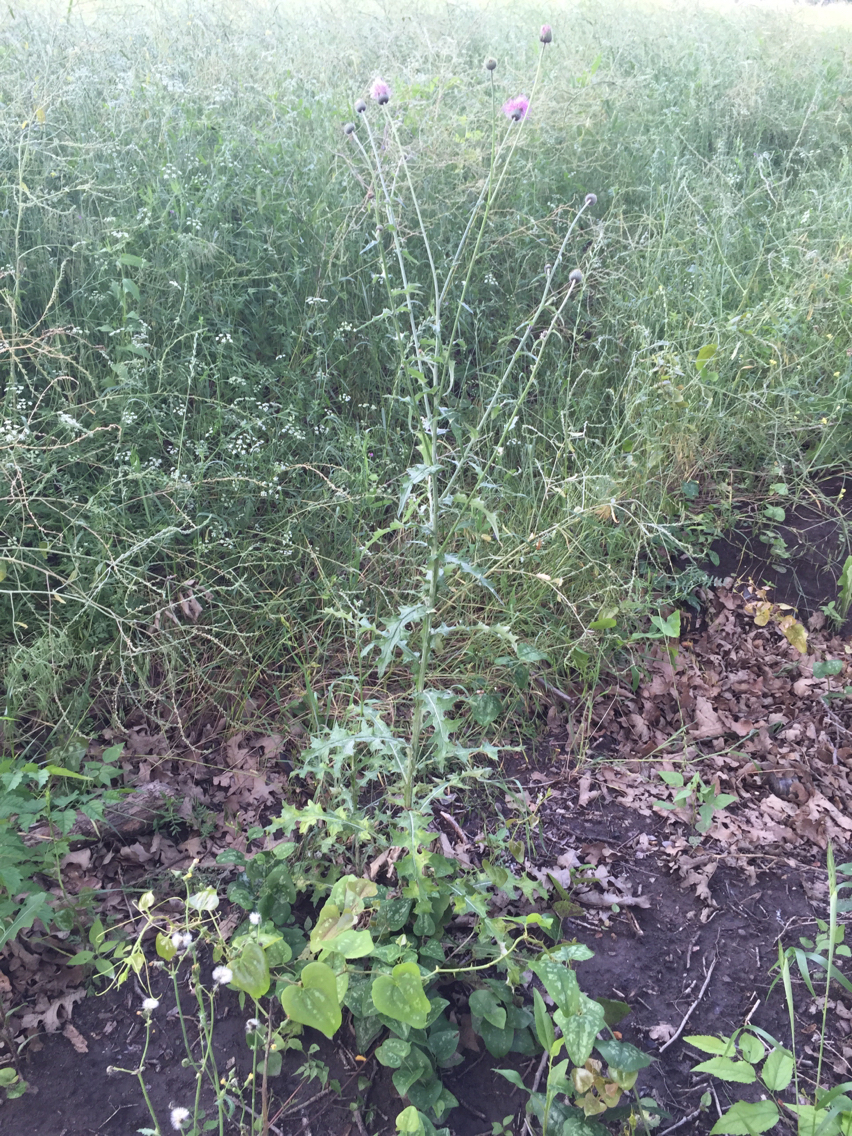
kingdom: Plantae
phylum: Tracheophyta
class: Magnoliopsida
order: Asterales
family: Asteraceae
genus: Cirsium
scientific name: Cirsium texanum
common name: Texas purple thistle
